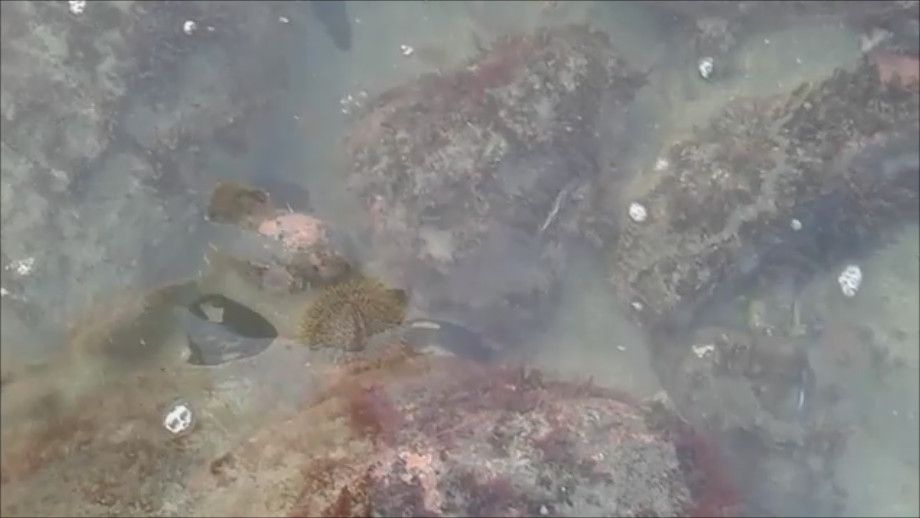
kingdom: Animalia
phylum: Echinodermata
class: Echinoidea
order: Camarodonta
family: Echinometridae
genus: Evechinus
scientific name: Evechinus chloroticus
